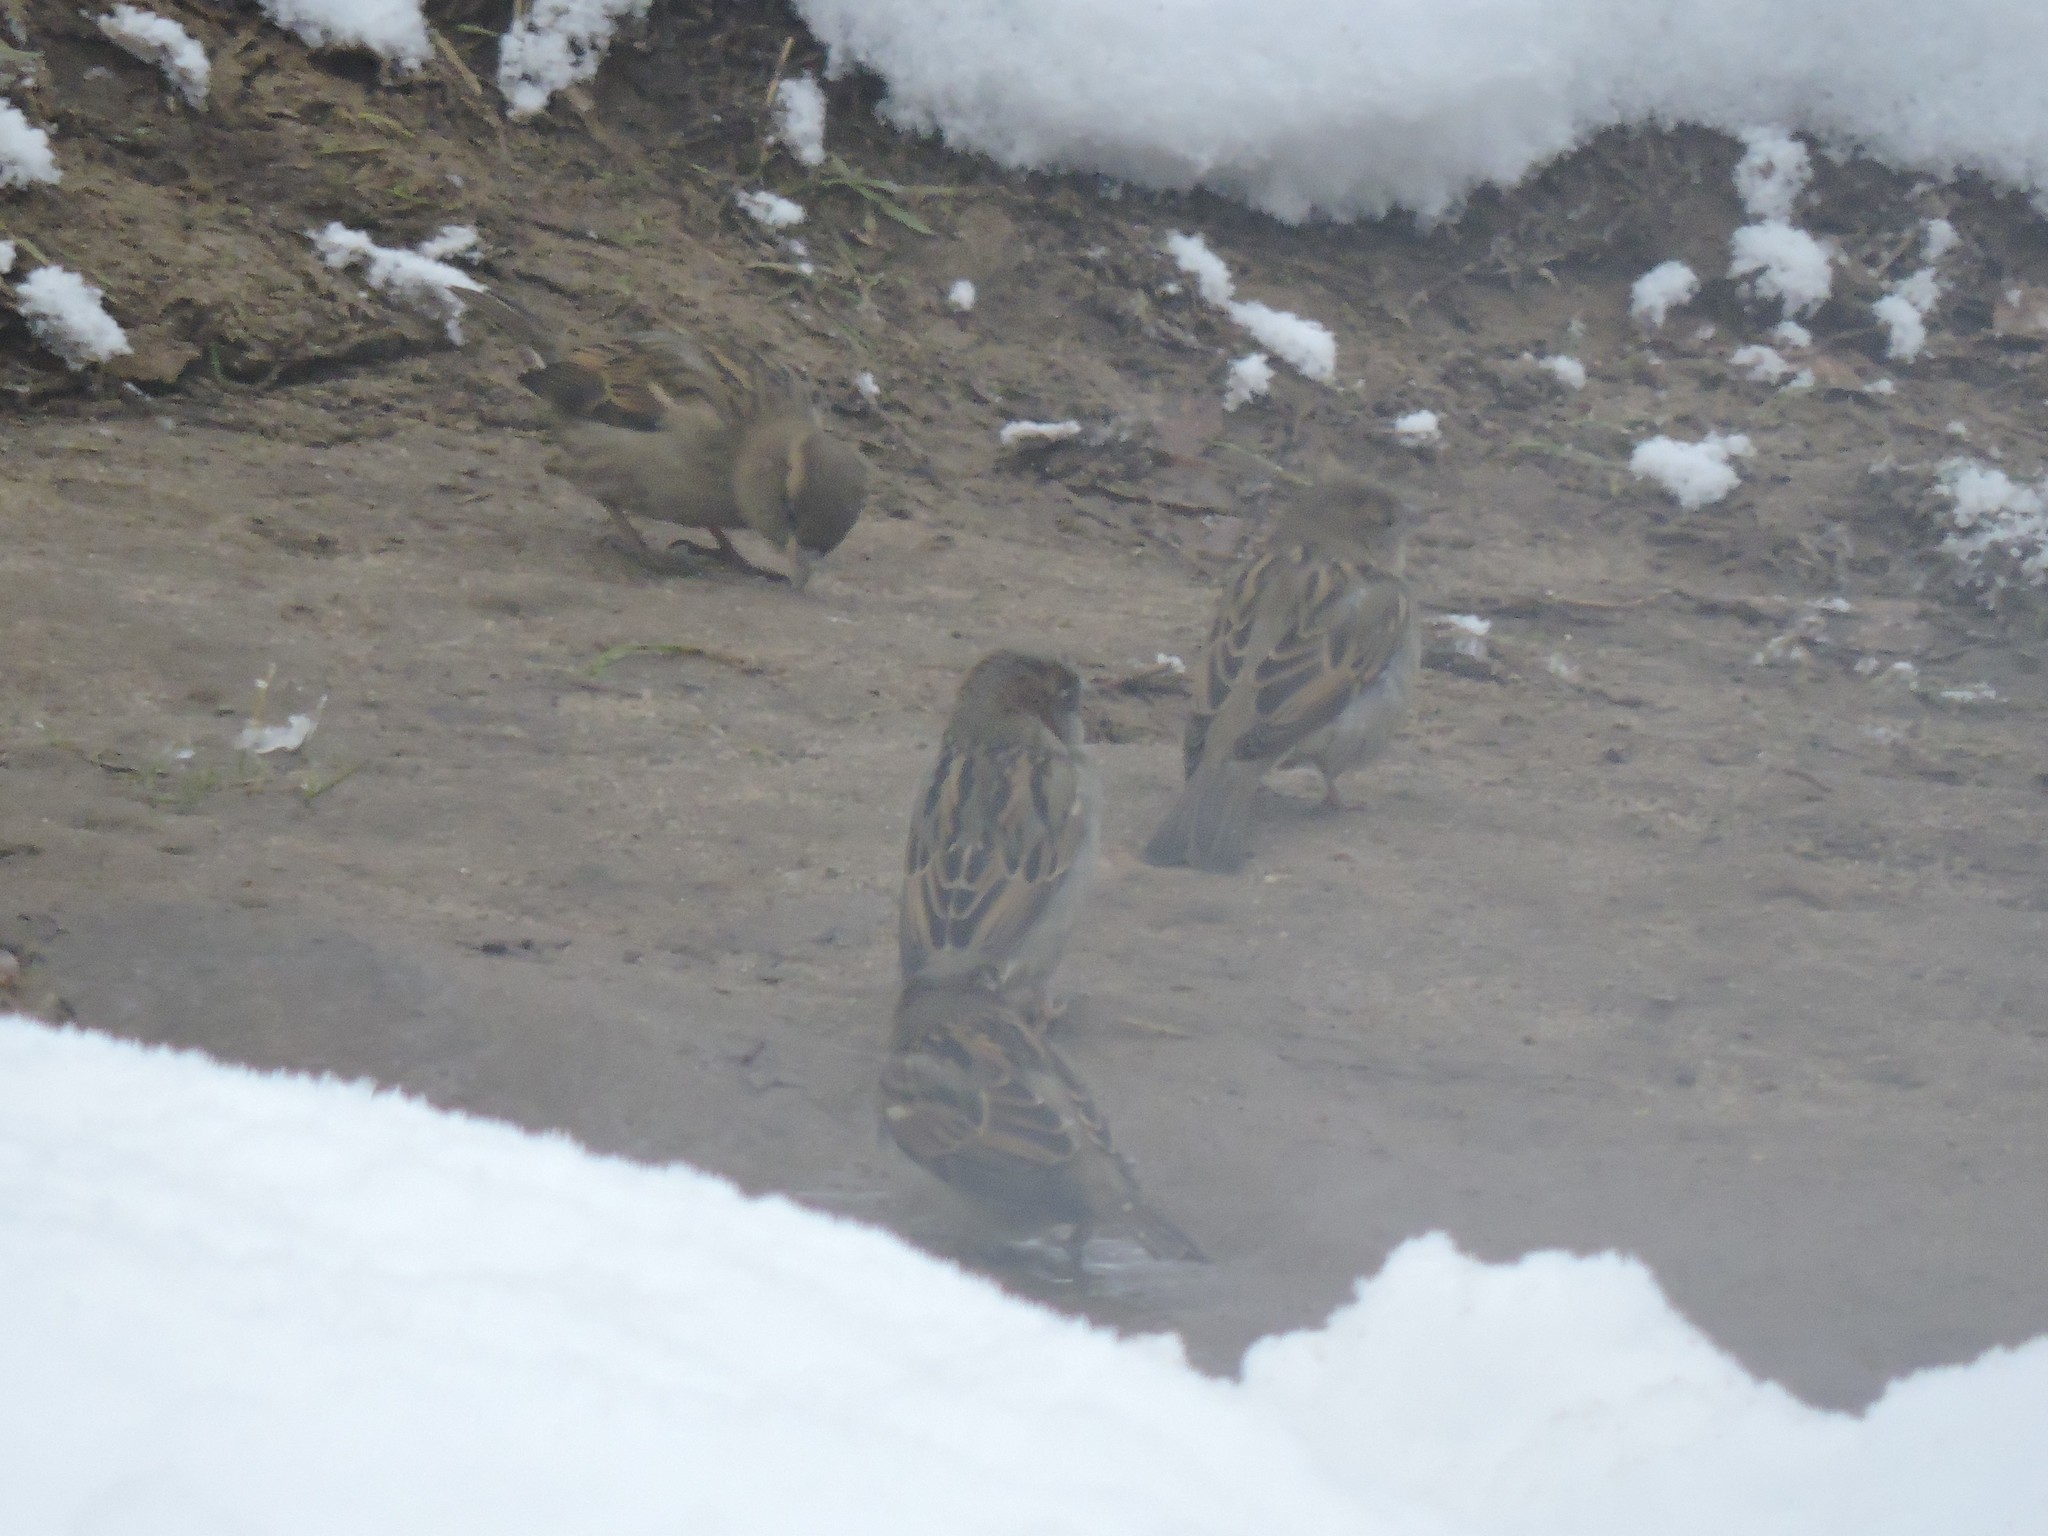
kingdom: Animalia
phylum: Chordata
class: Aves
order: Passeriformes
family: Passeridae
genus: Passer
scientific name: Passer domesticus
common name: House sparrow
